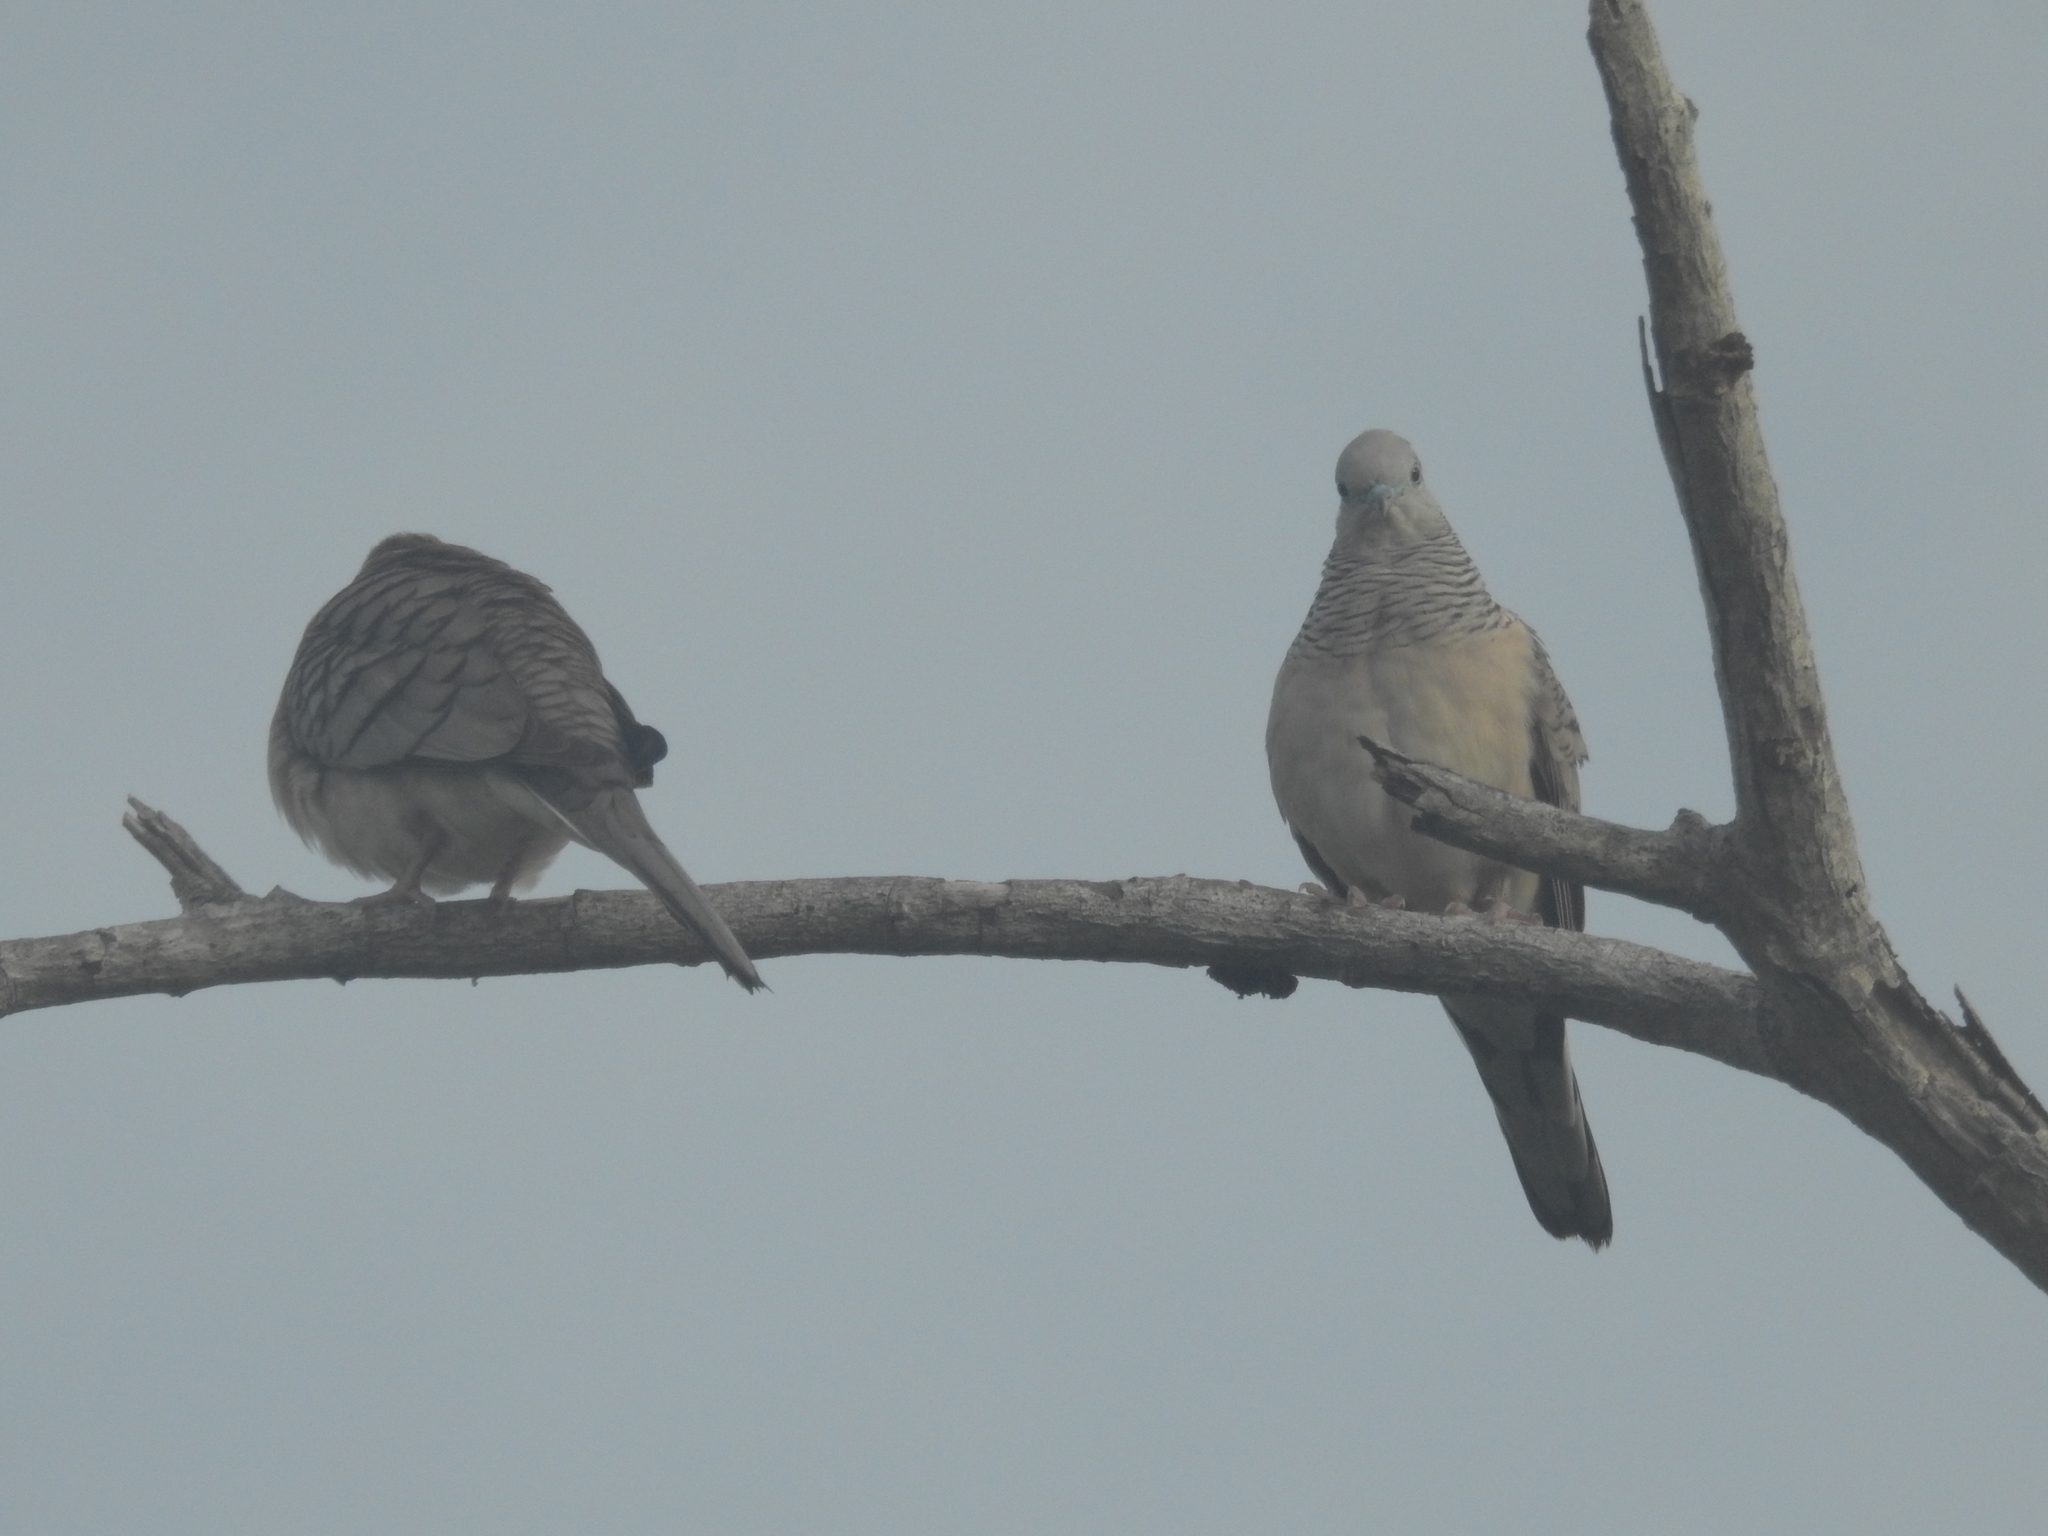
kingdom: Animalia
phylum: Chordata
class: Aves
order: Columbiformes
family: Columbidae
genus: Geopelia
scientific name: Geopelia placida
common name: Peaceful dove
